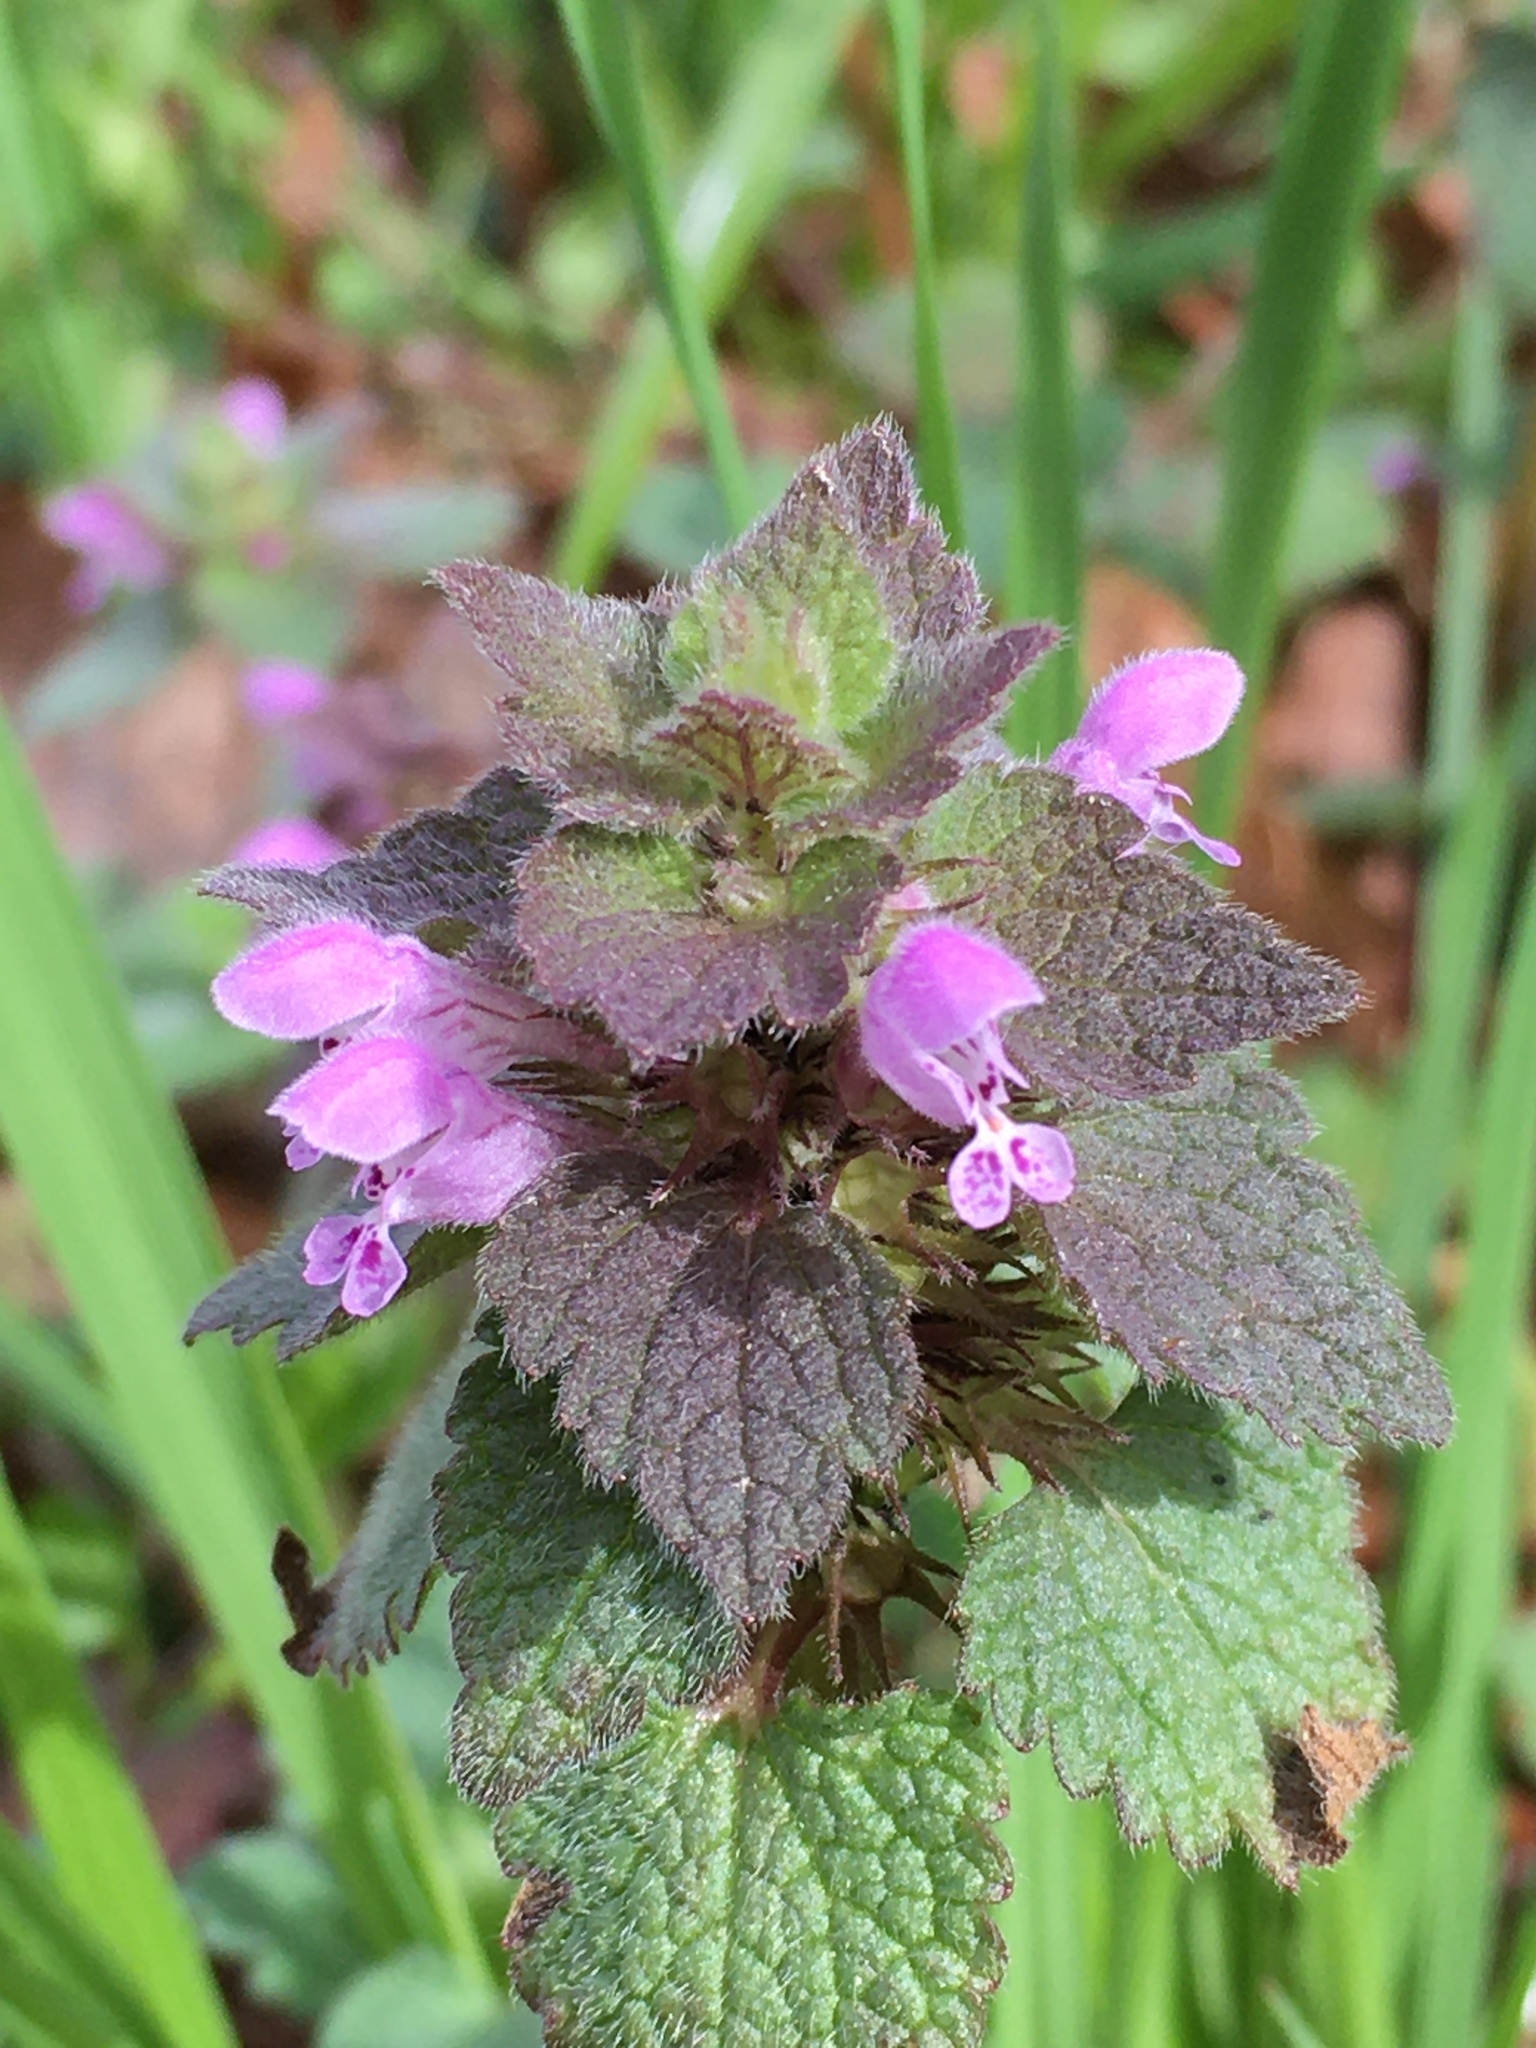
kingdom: Plantae
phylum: Tracheophyta
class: Magnoliopsida
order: Lamiales
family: Lamiaceae
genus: Lamium
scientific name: Lamium purpureum
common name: Red dead-nettle
